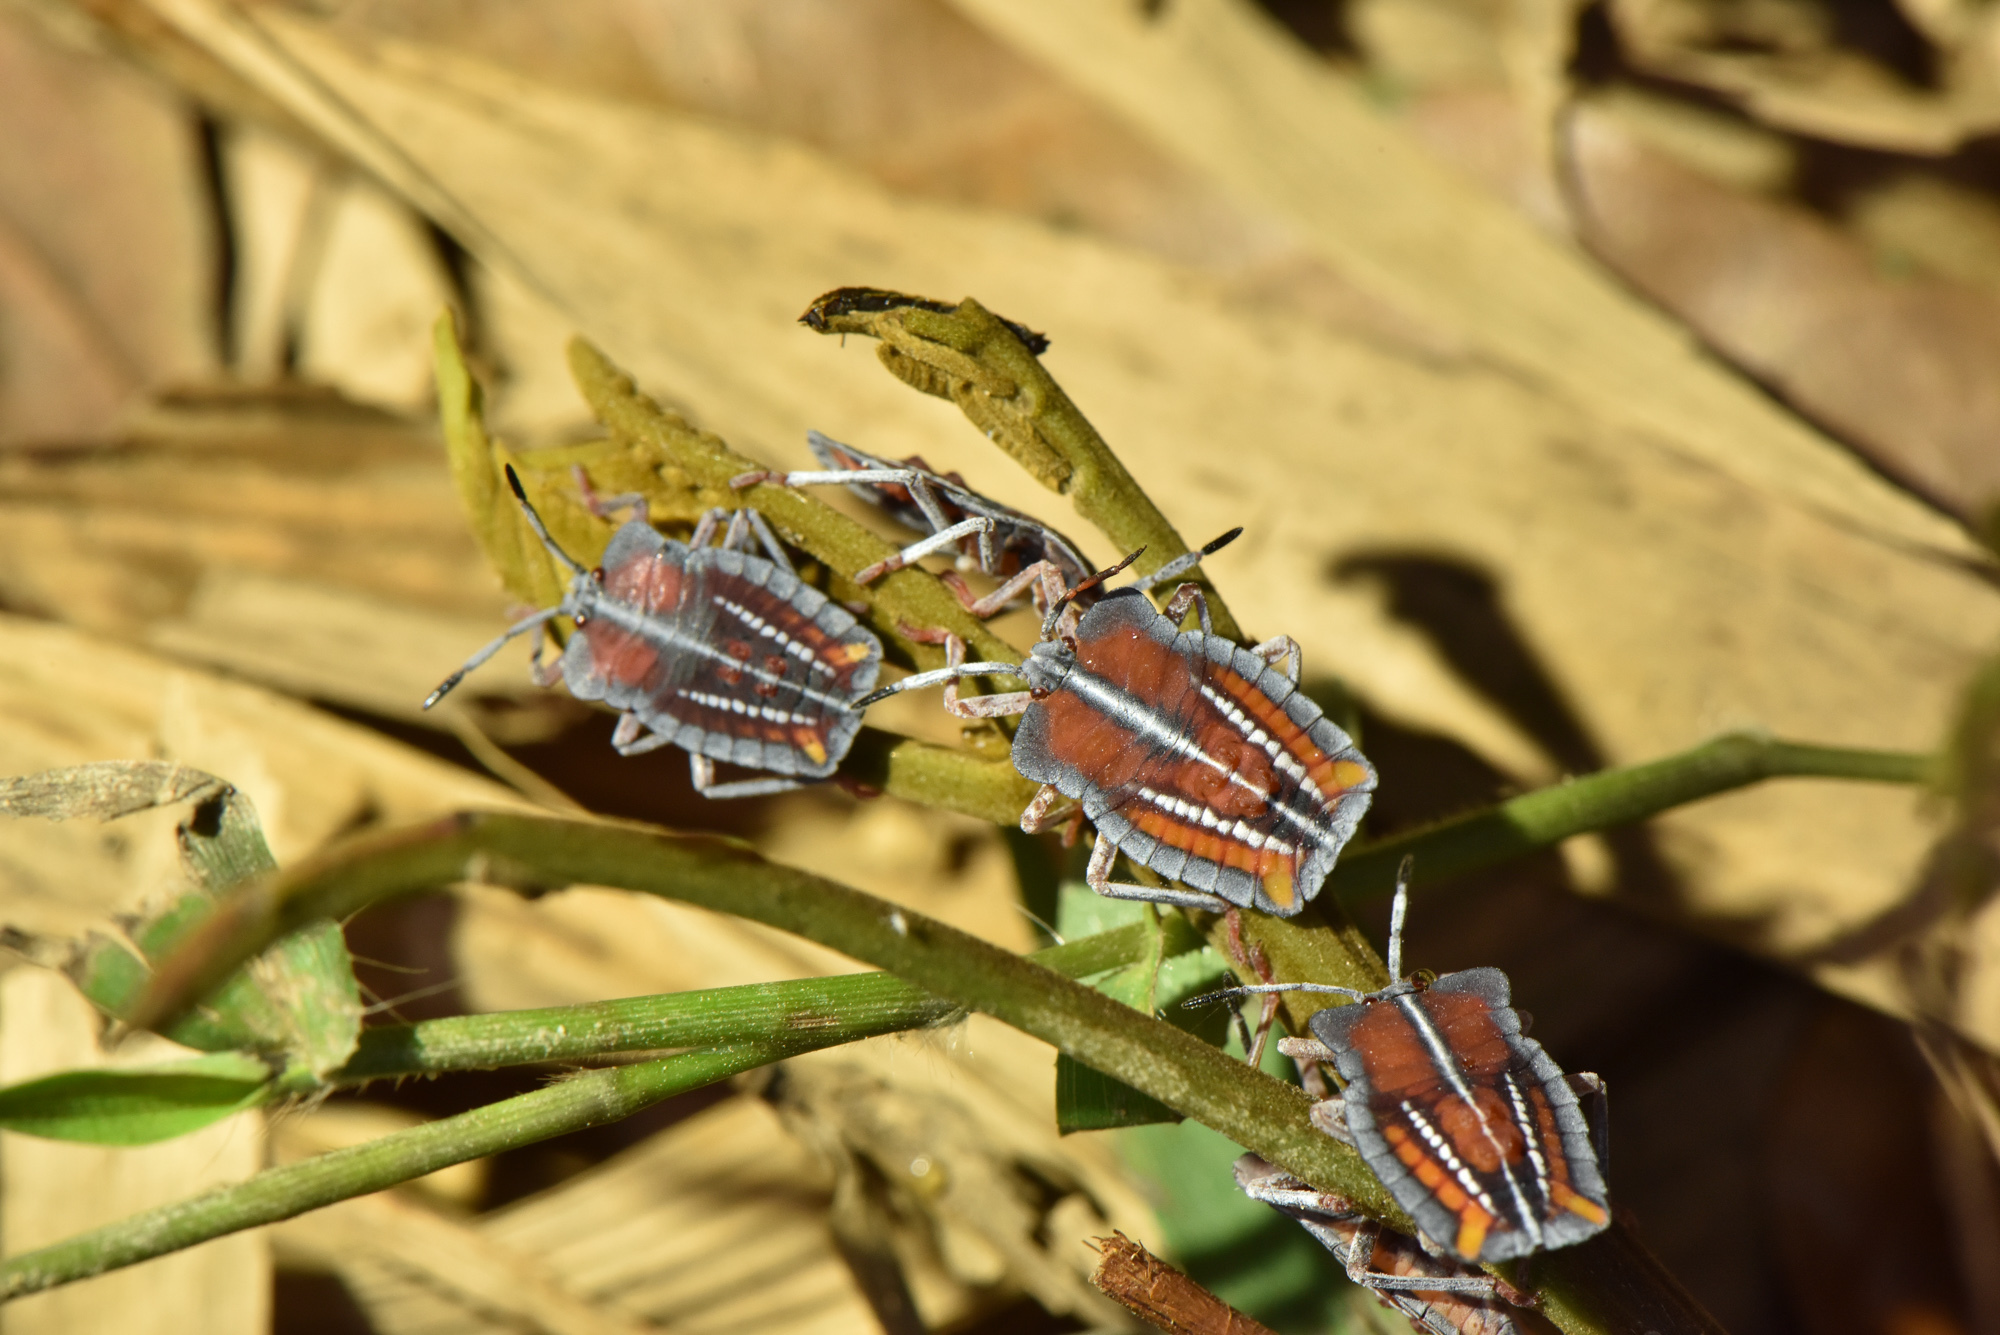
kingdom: Animalia
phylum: Arthropoda
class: Insecta
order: Hemiptera
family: Tessaratomidae
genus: Tessaratoma
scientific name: Tessaratoma papillosa
